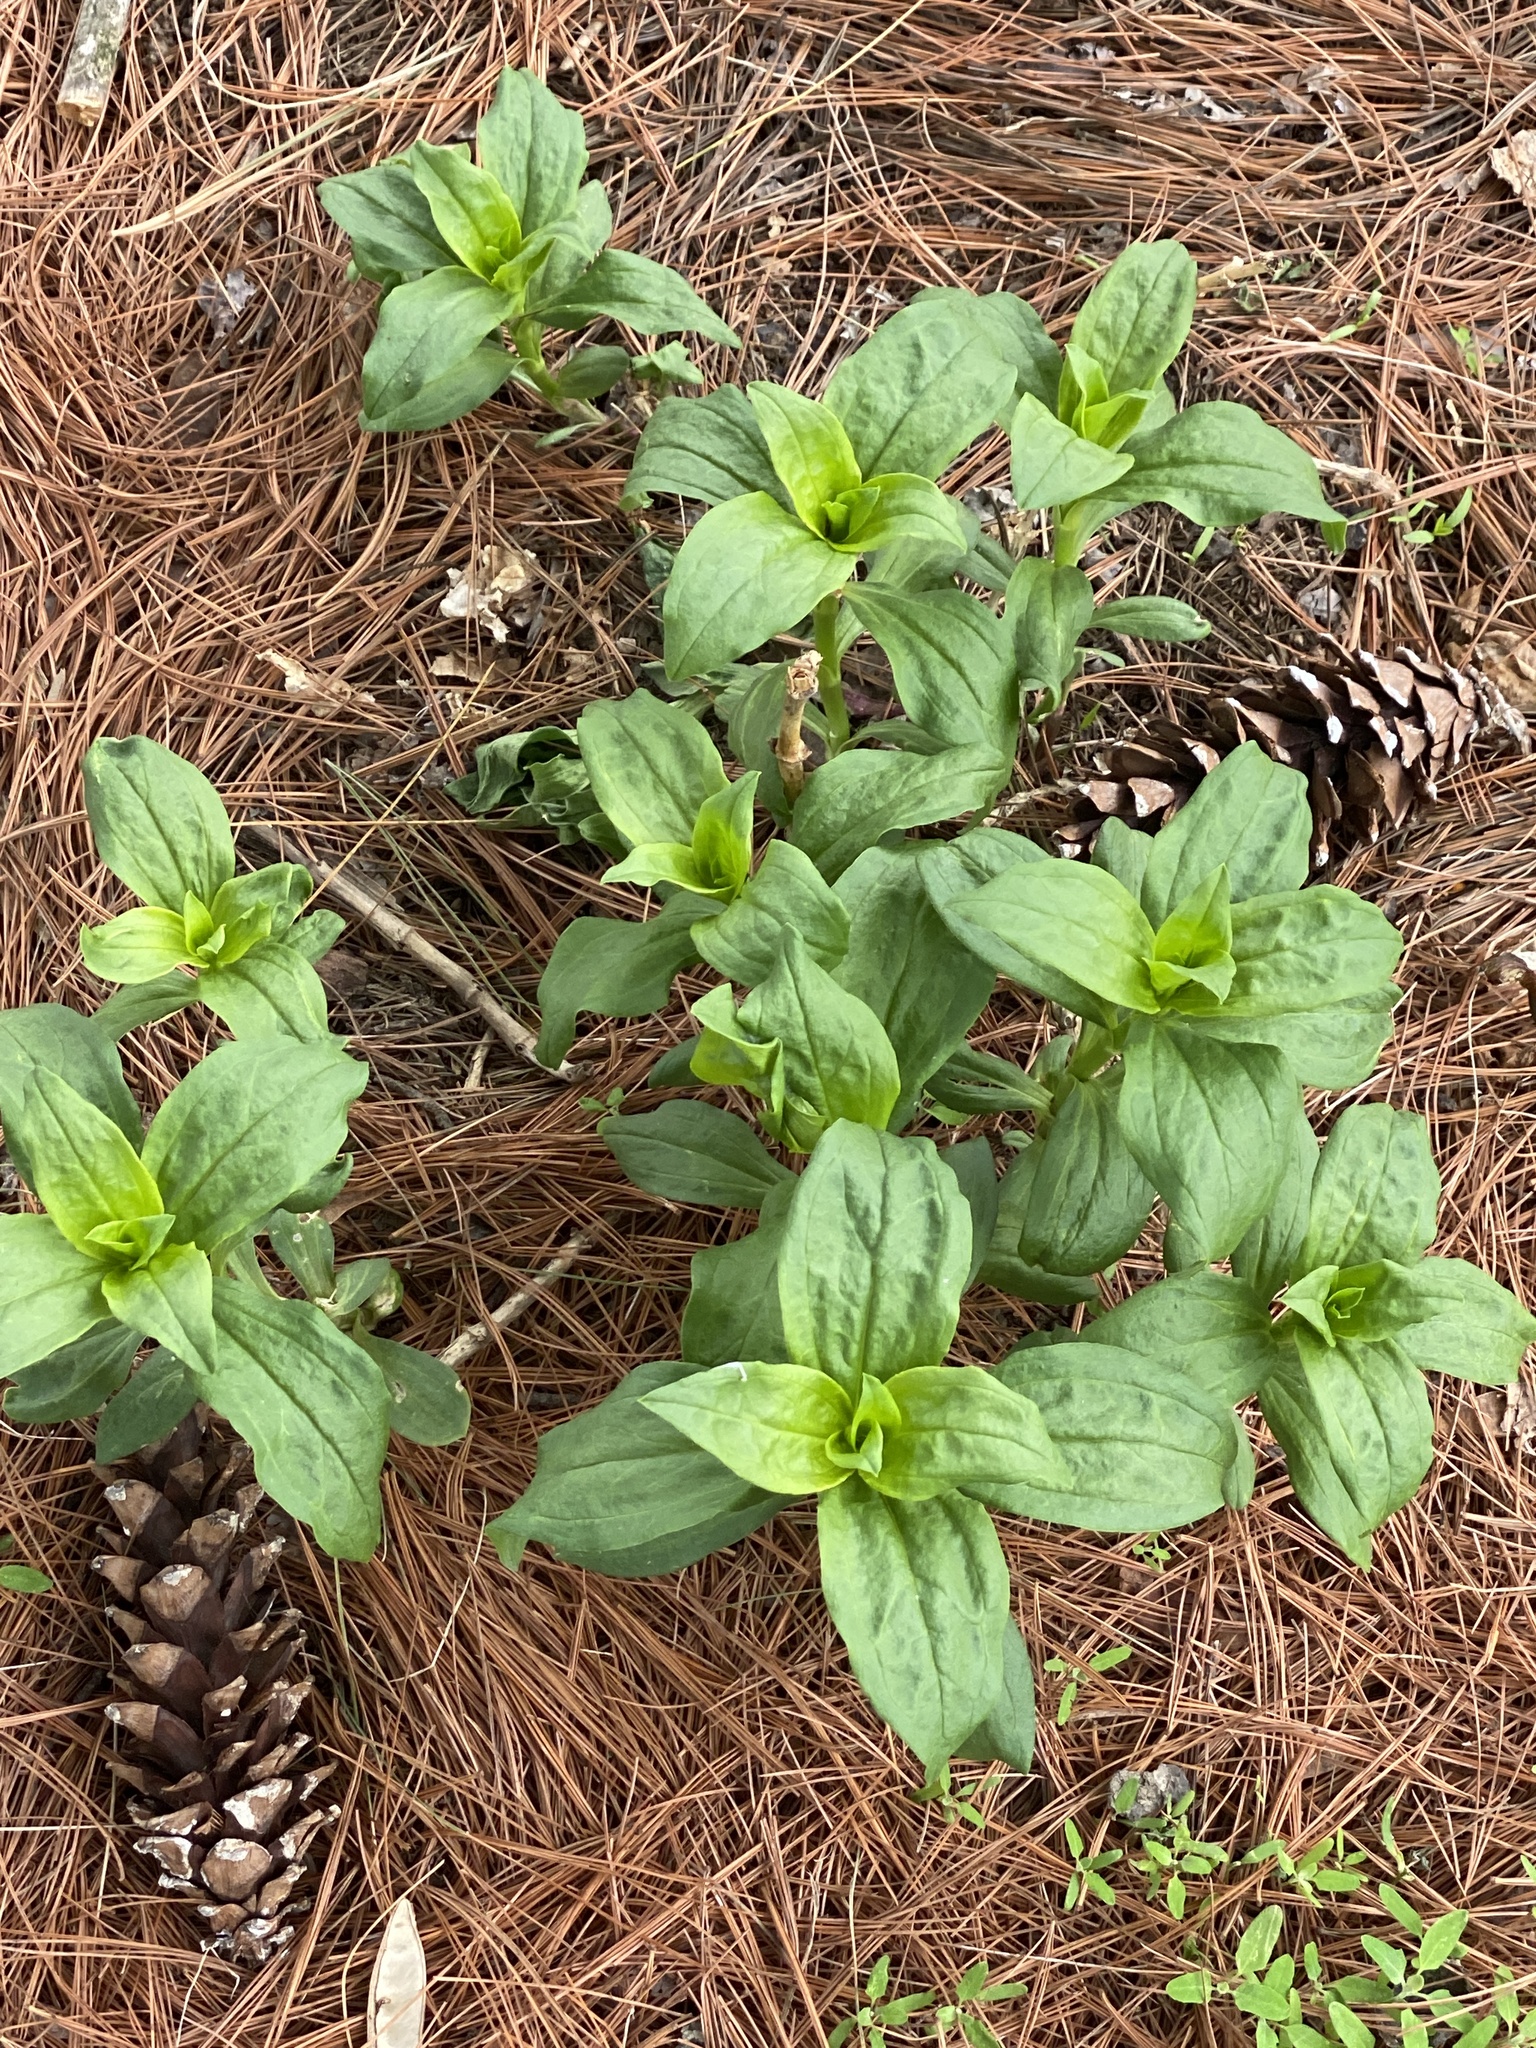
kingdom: Plantae
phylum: Tracheophyta
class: Magnoliopsida
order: Caryophyllales
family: Caryophyllaceae
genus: Saponaria
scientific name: Saponaria officinalis
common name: Soapwort
